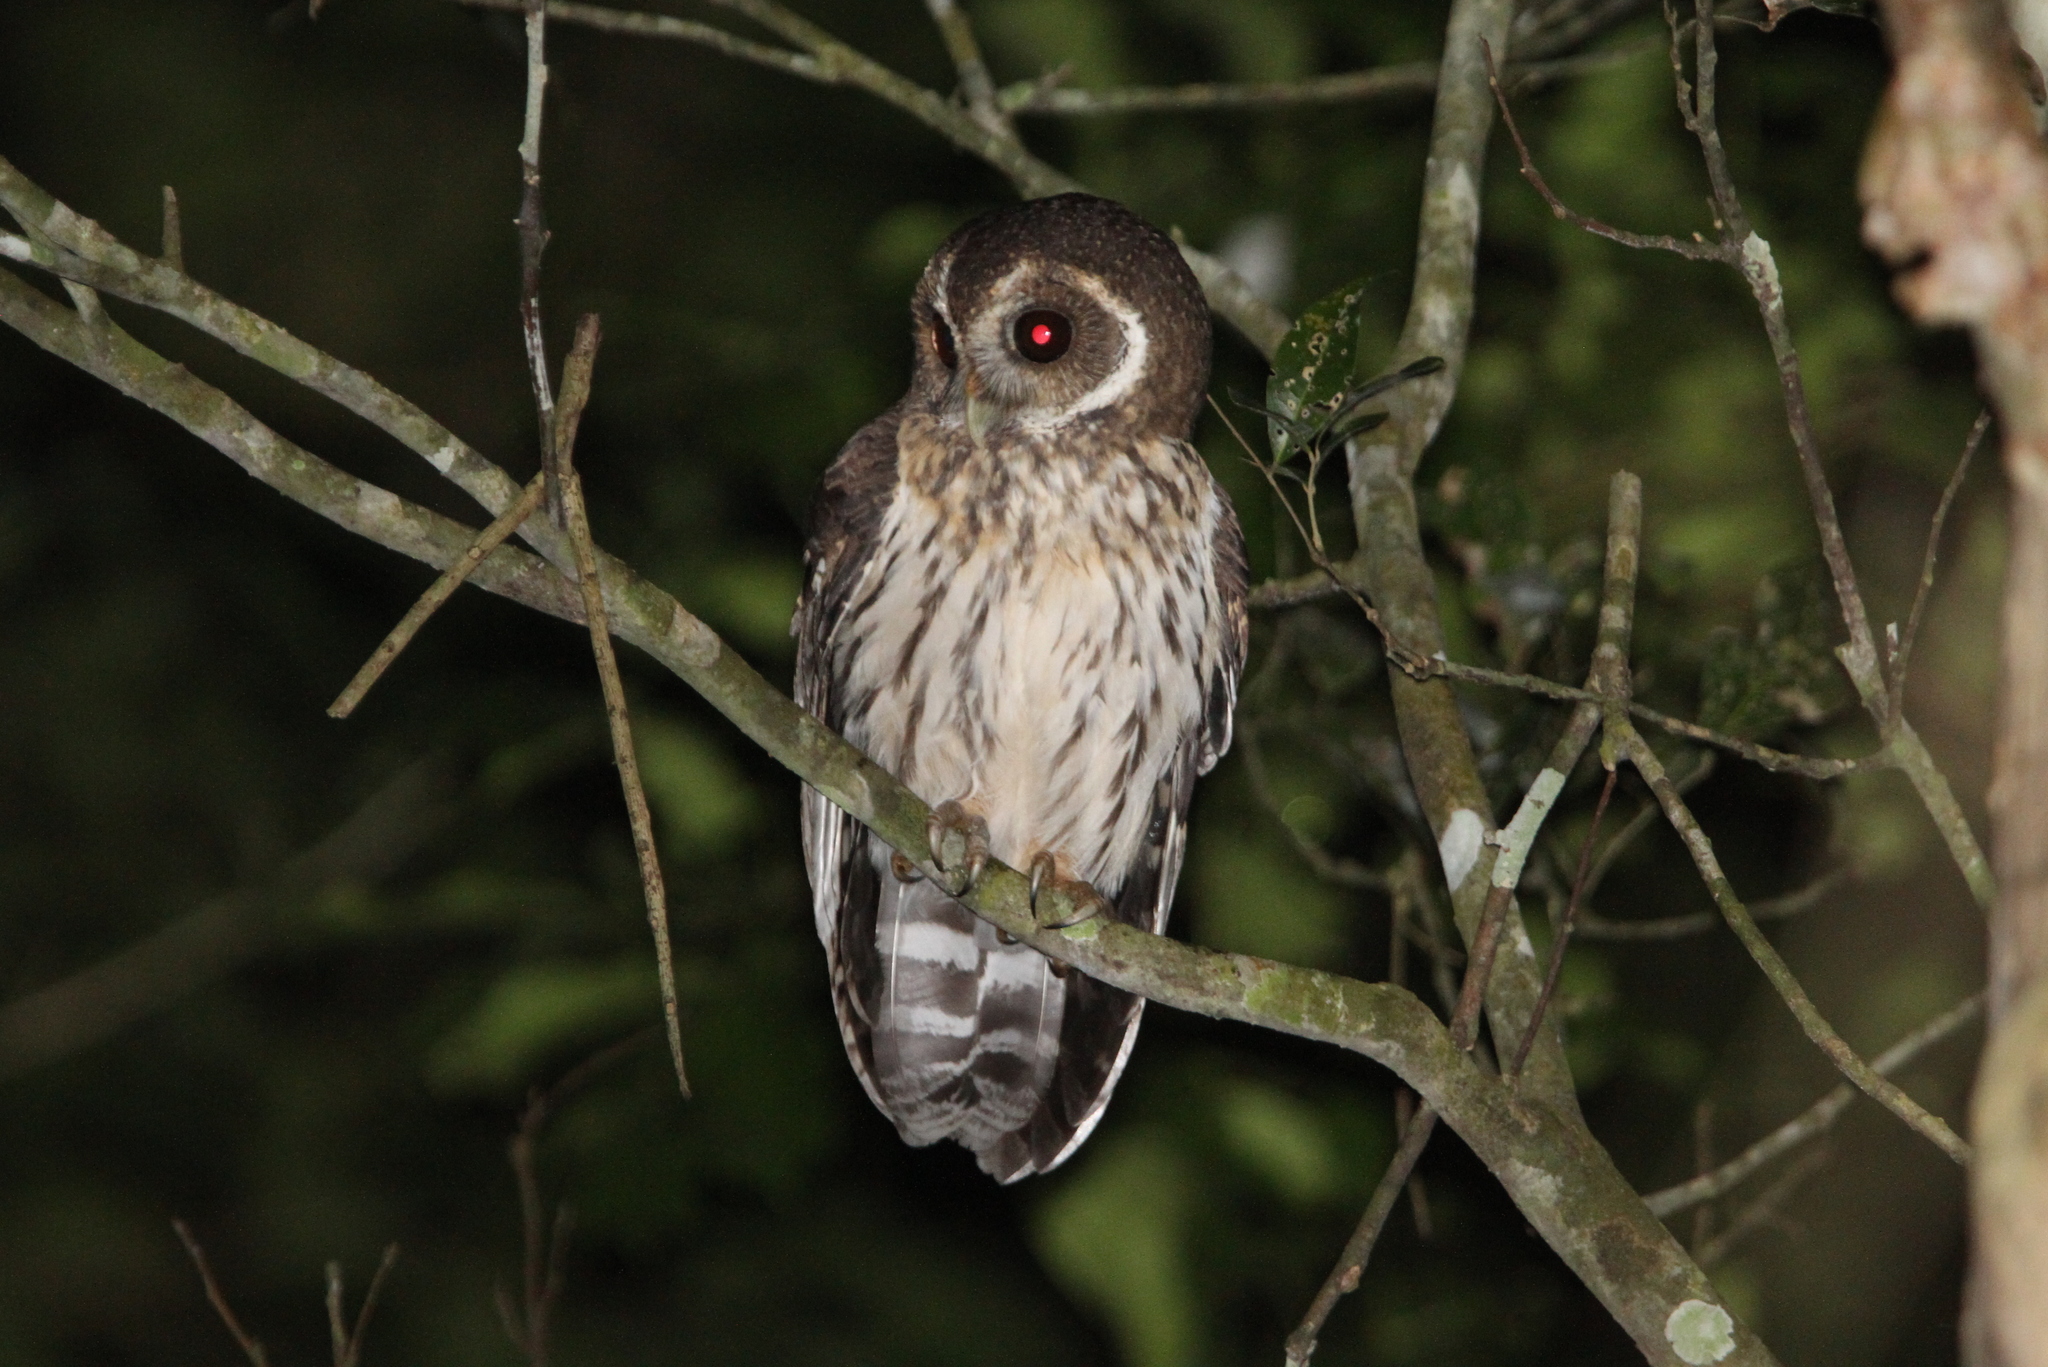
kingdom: Animalia
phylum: Chordata
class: Aves
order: Strigiformes
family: Strigidae
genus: Strix
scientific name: Strix virgata
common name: Mottled owl
